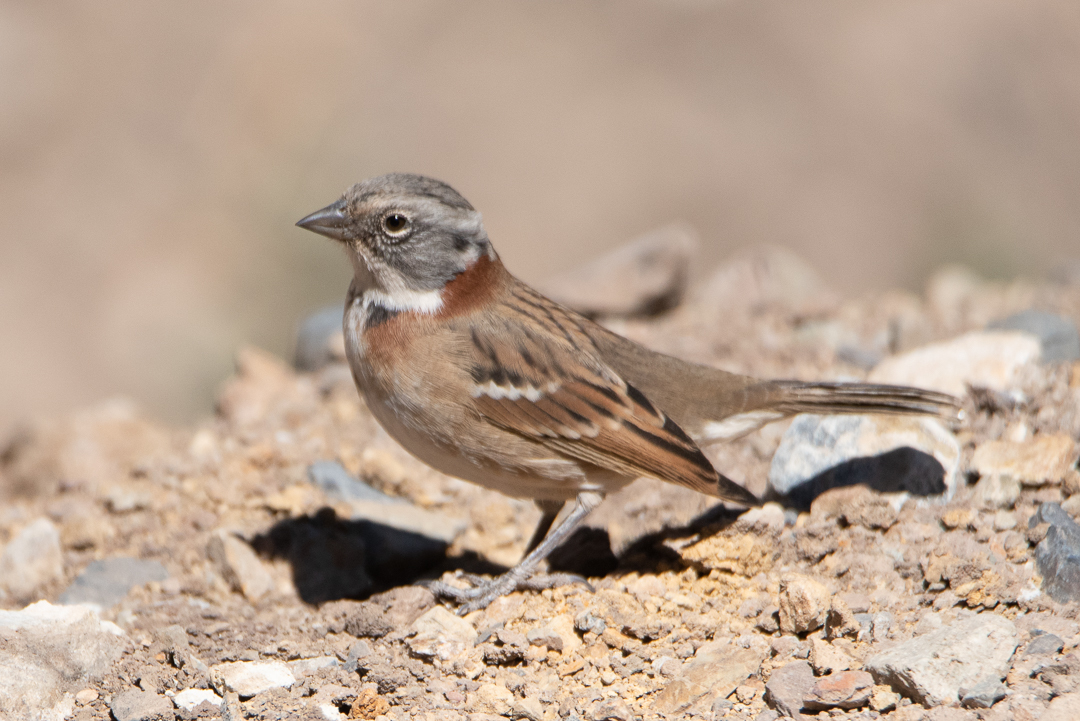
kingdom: Animalia
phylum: Chordata
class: Aves
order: Passeriformes
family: Passerellidae
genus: Zonotrichia
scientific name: Zonotrichia capensis
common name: Rufous-collared sparrow
